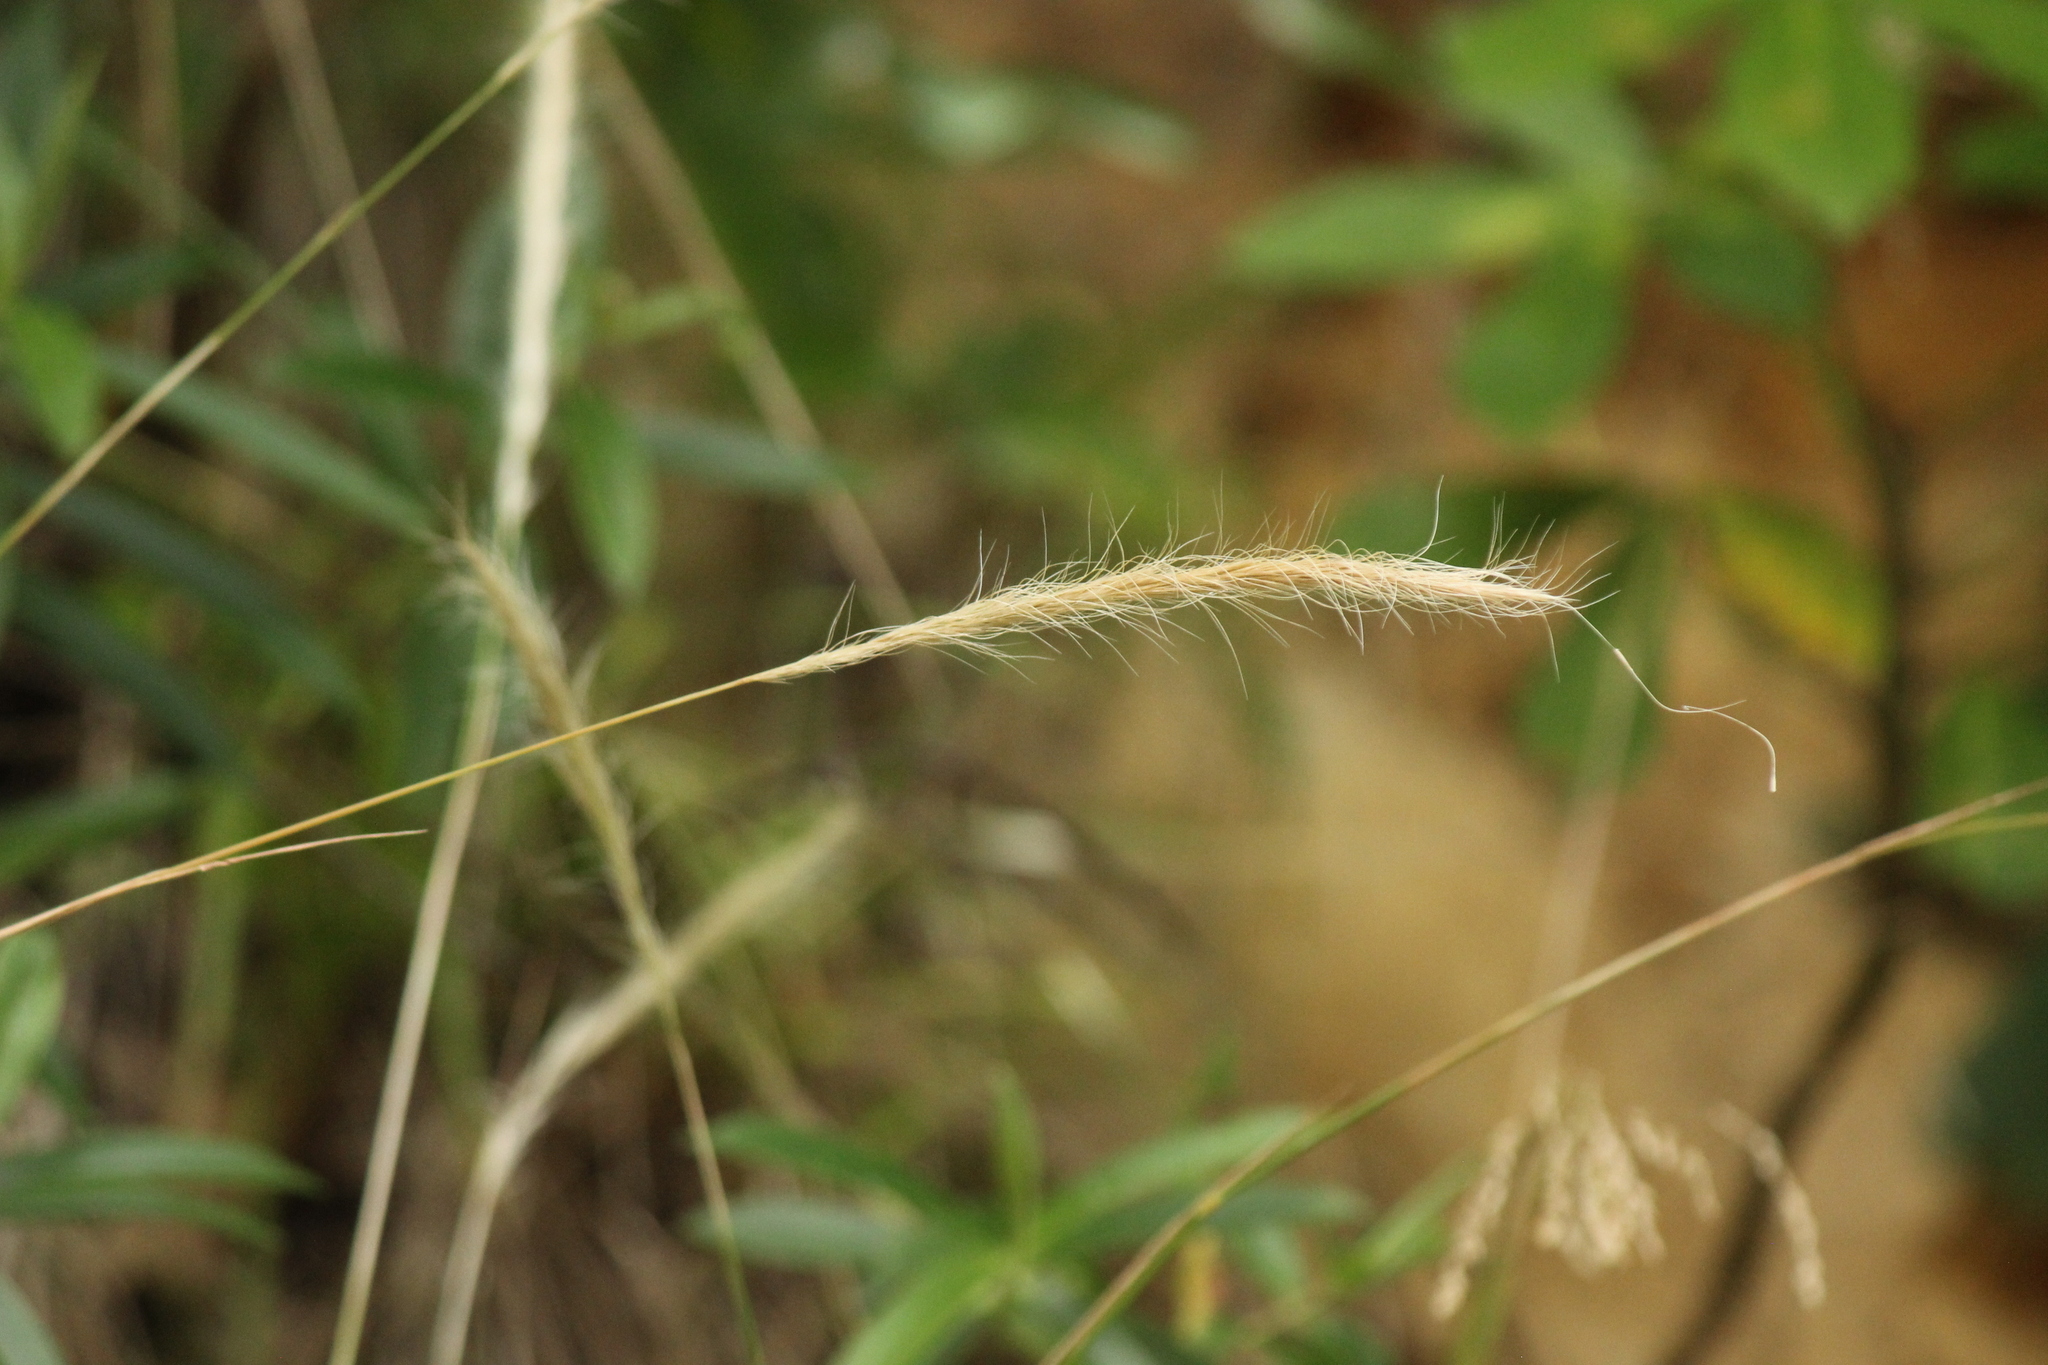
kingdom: Plantae
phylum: Tracheophyta
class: Liliopsida
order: Poales
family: Poaceae
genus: Dichelachne
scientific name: Dichelachne crinita
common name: Clovenfoot plumegrass
